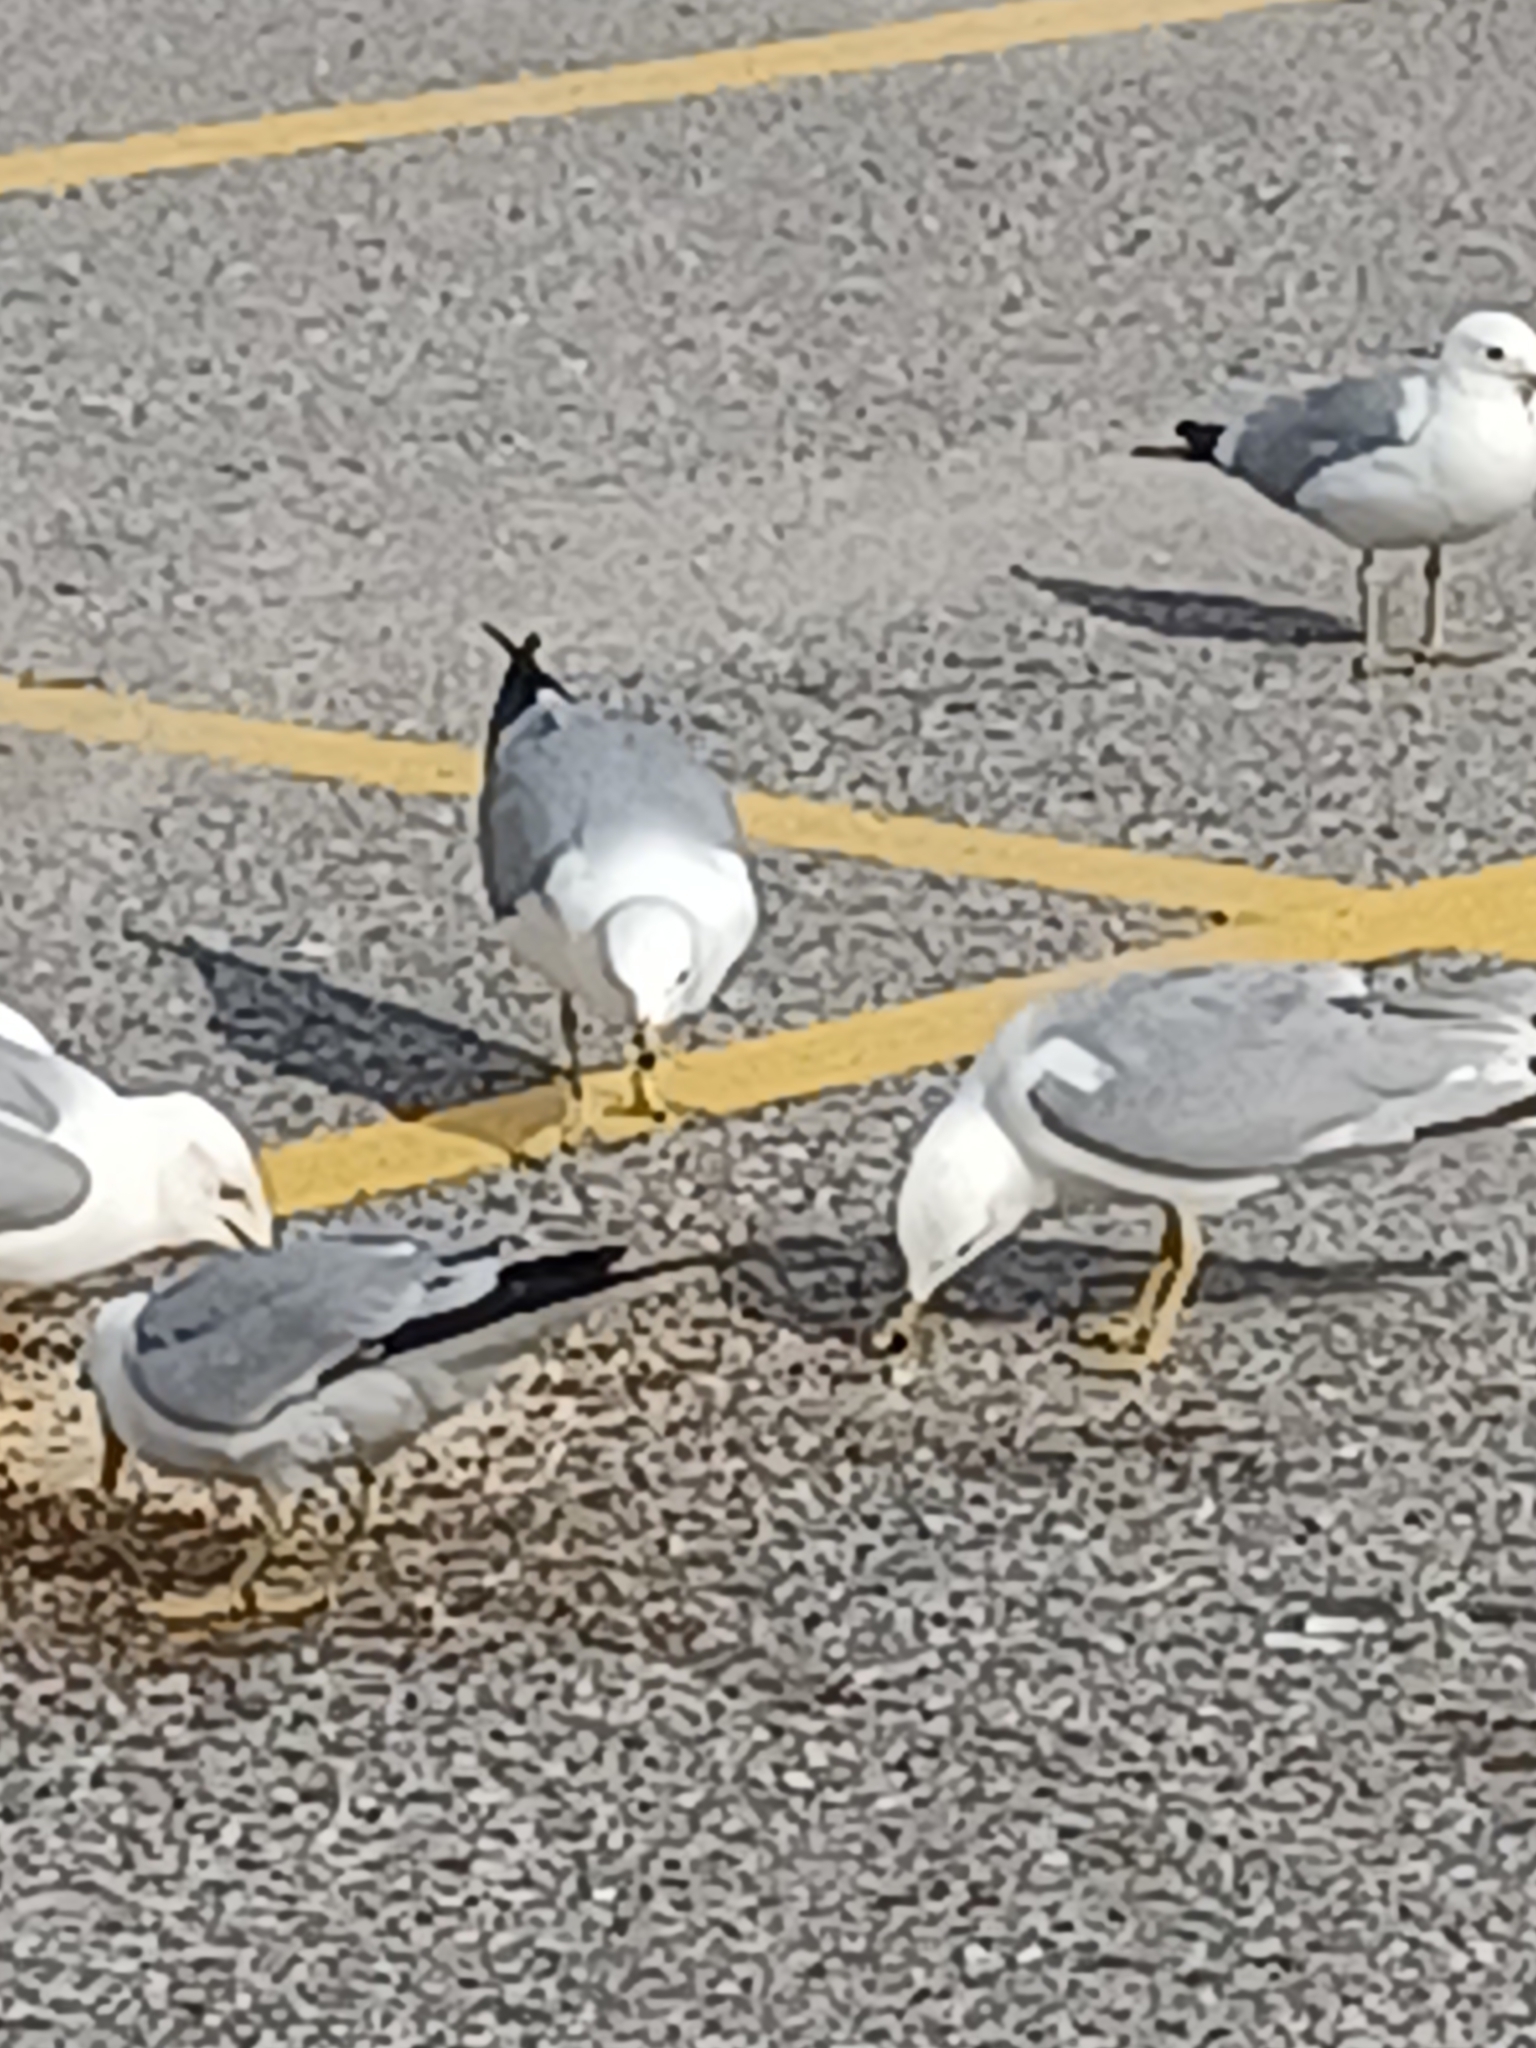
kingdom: Animalia
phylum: Chordata
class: Aves
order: Charadriiformes
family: Laridae
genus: Larus
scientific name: Larus delawarensis
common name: Ring-billed gull
